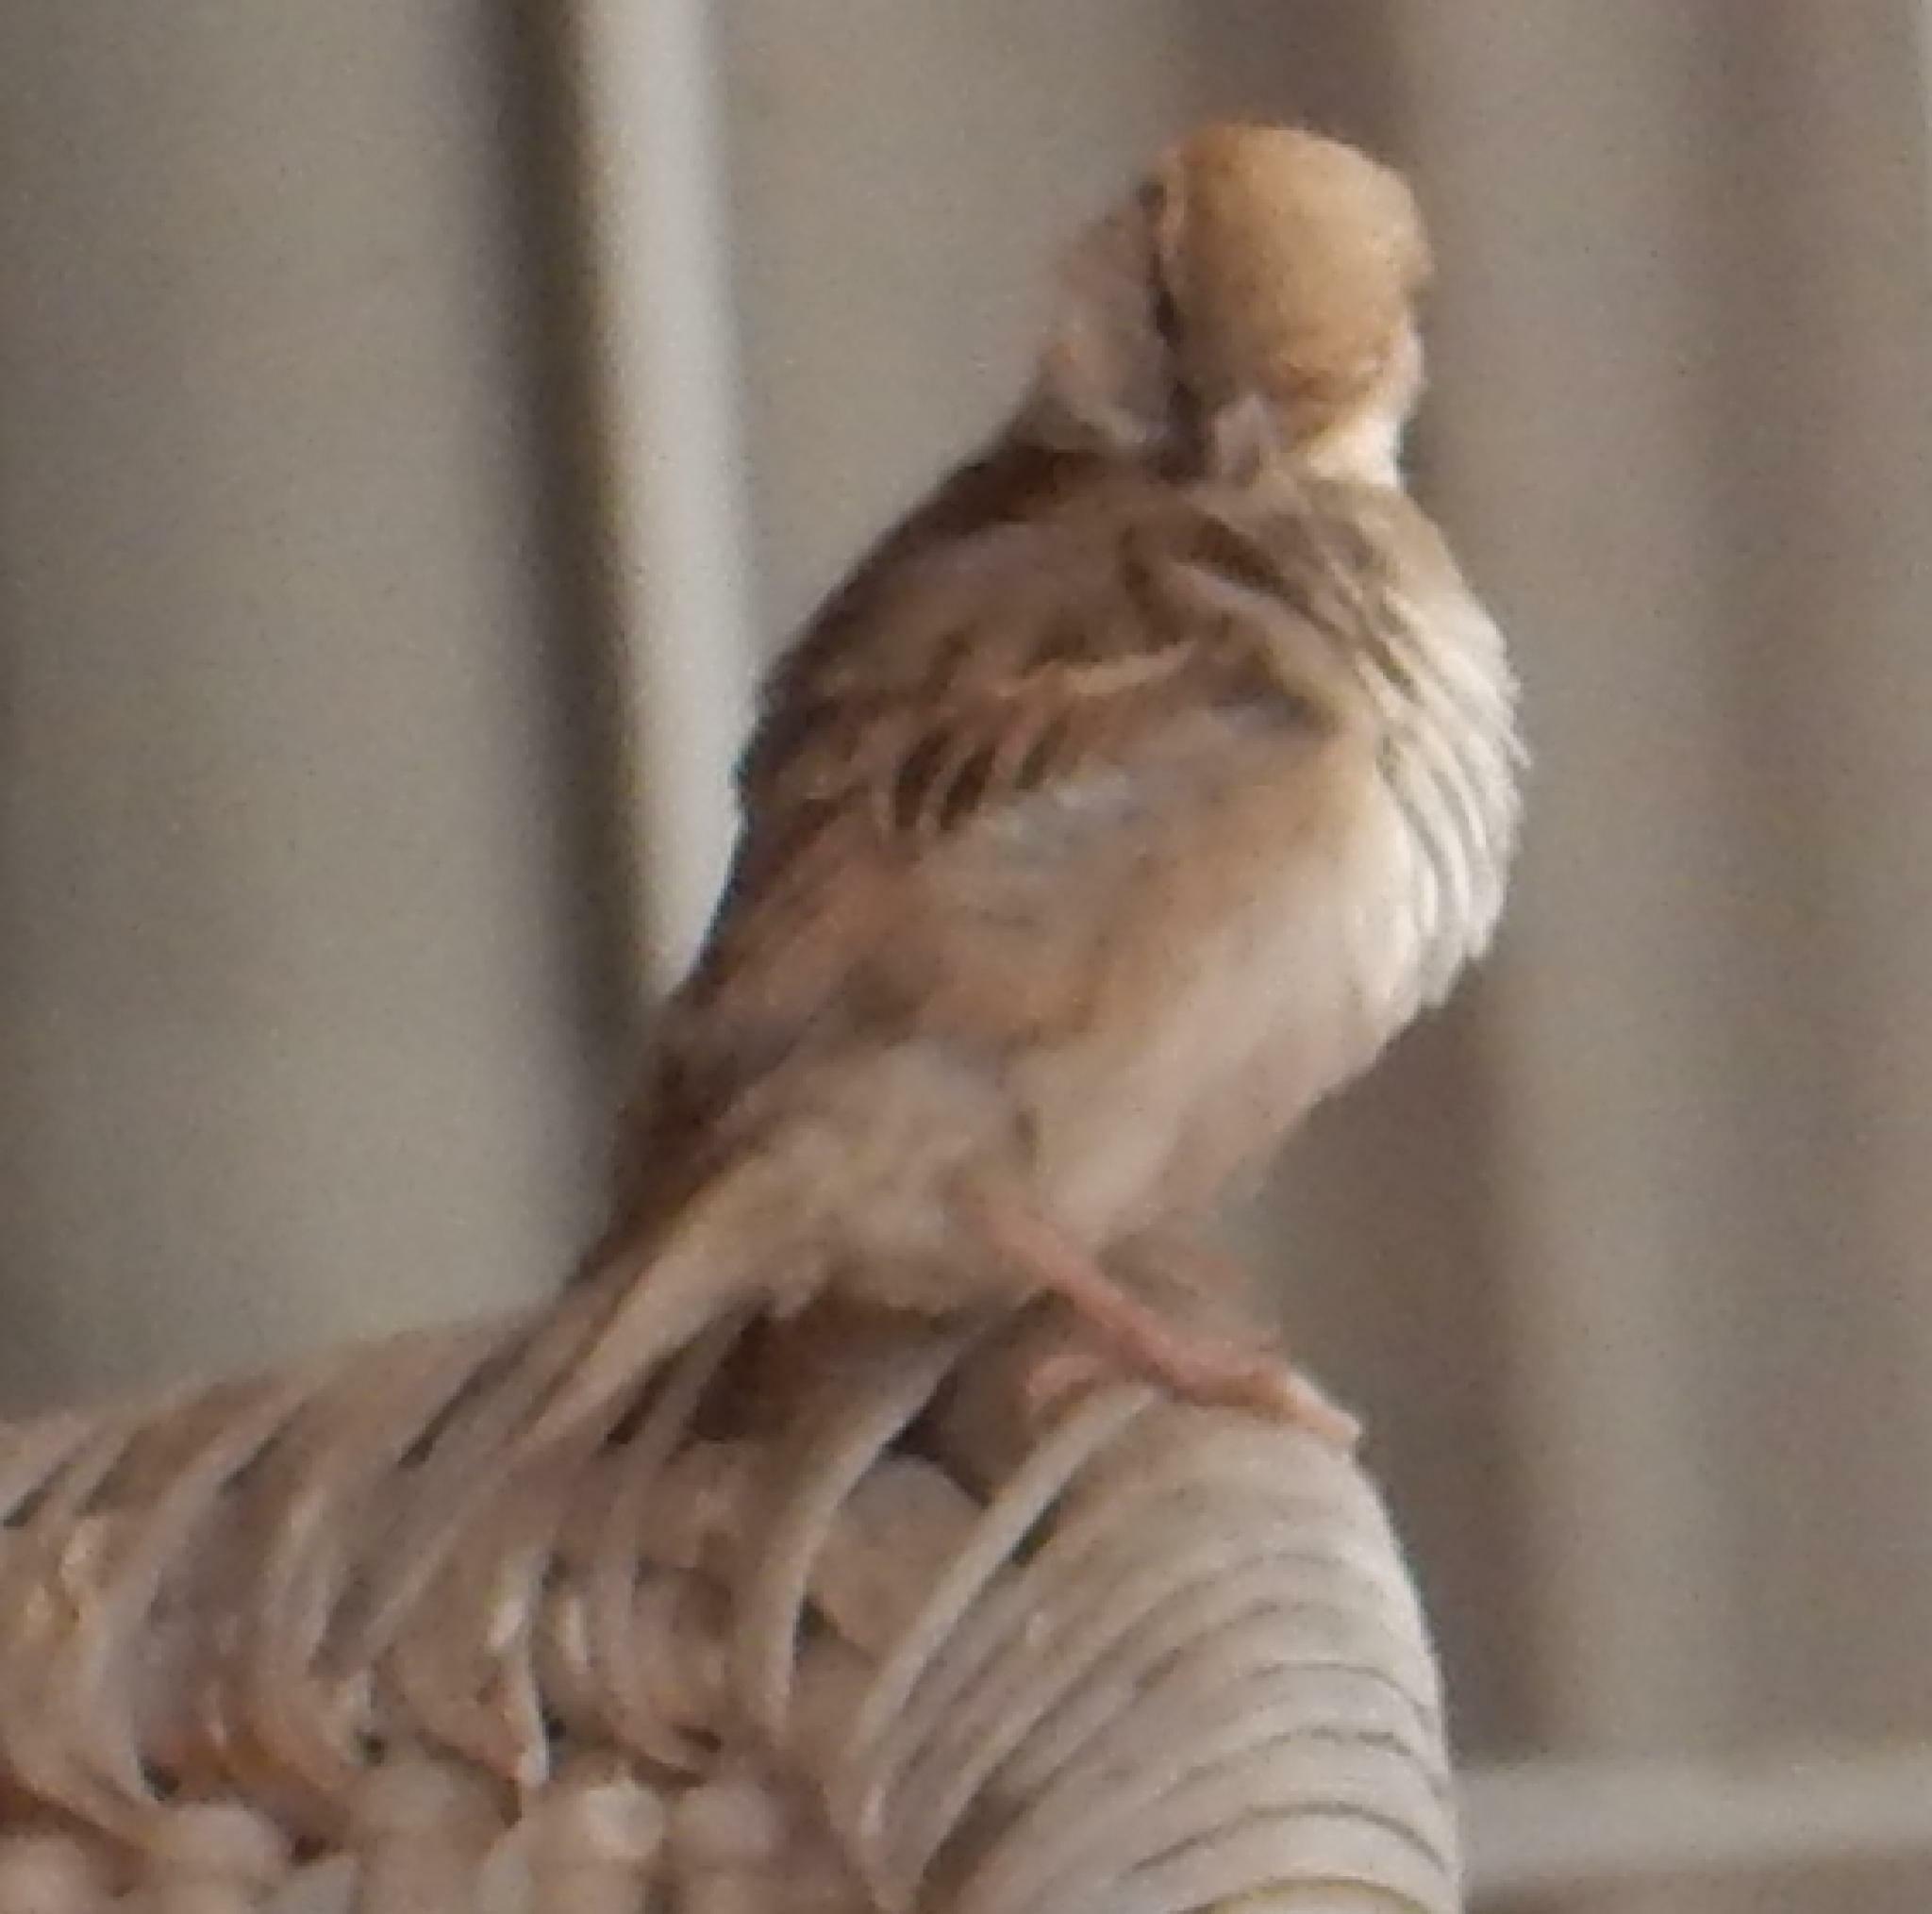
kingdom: Animalia
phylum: Chordata
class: Aves
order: Passeriformes
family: Passeridae
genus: Passer
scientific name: Passer domesticus
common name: House sparrow
